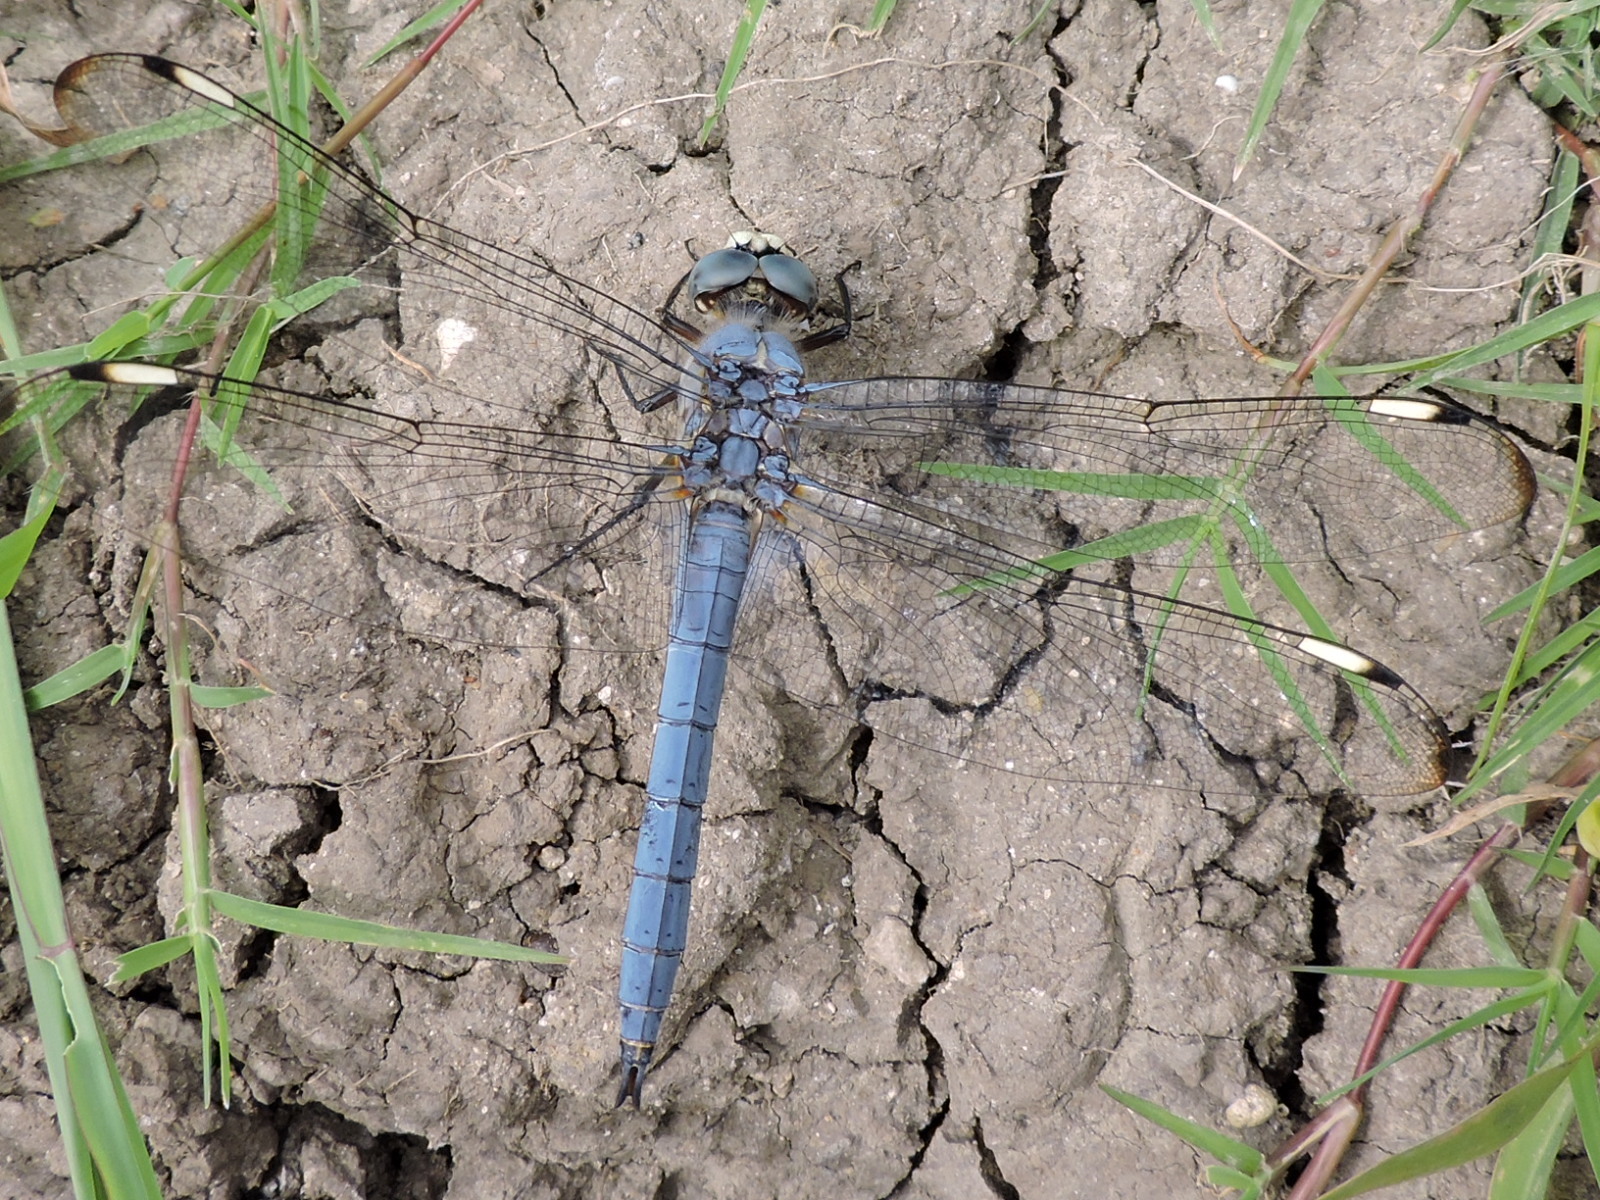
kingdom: Animalia
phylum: Arthropoda
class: Insecta
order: Odonata
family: Libellulidae
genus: Libellula
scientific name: Libellula comanche
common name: Comanche skimmer
